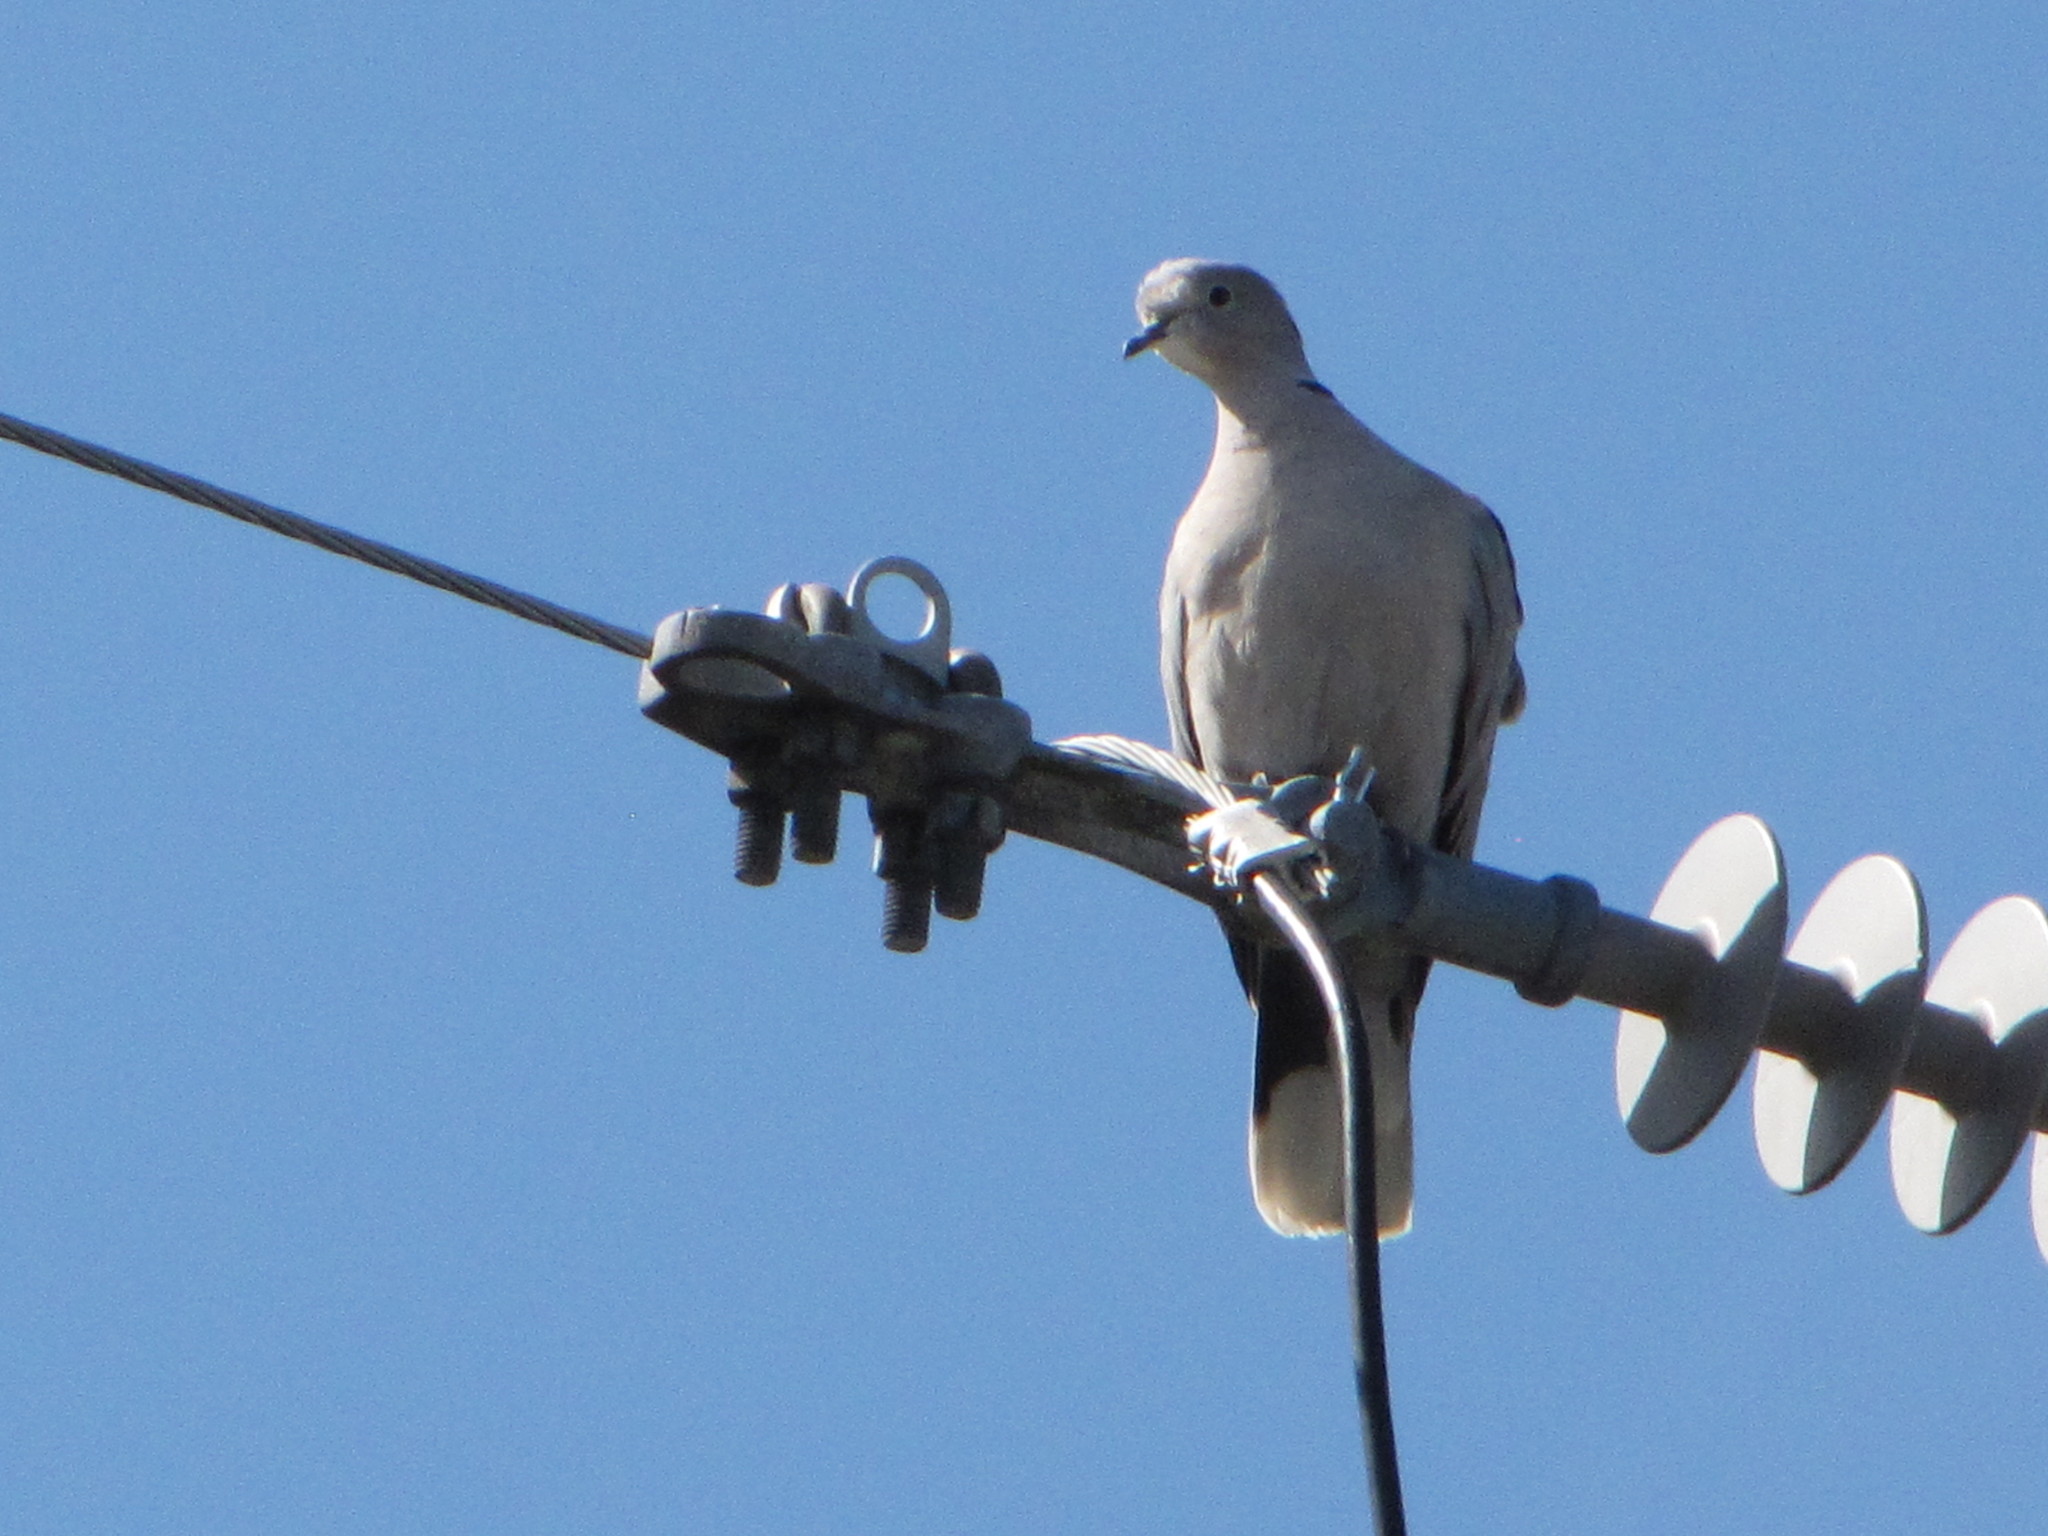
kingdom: Animalia
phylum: Chordata
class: Aves
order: Columbiformes
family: Columbidae
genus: Streptopelia
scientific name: Streptopelia decaocto
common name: Eurasian collared dove
